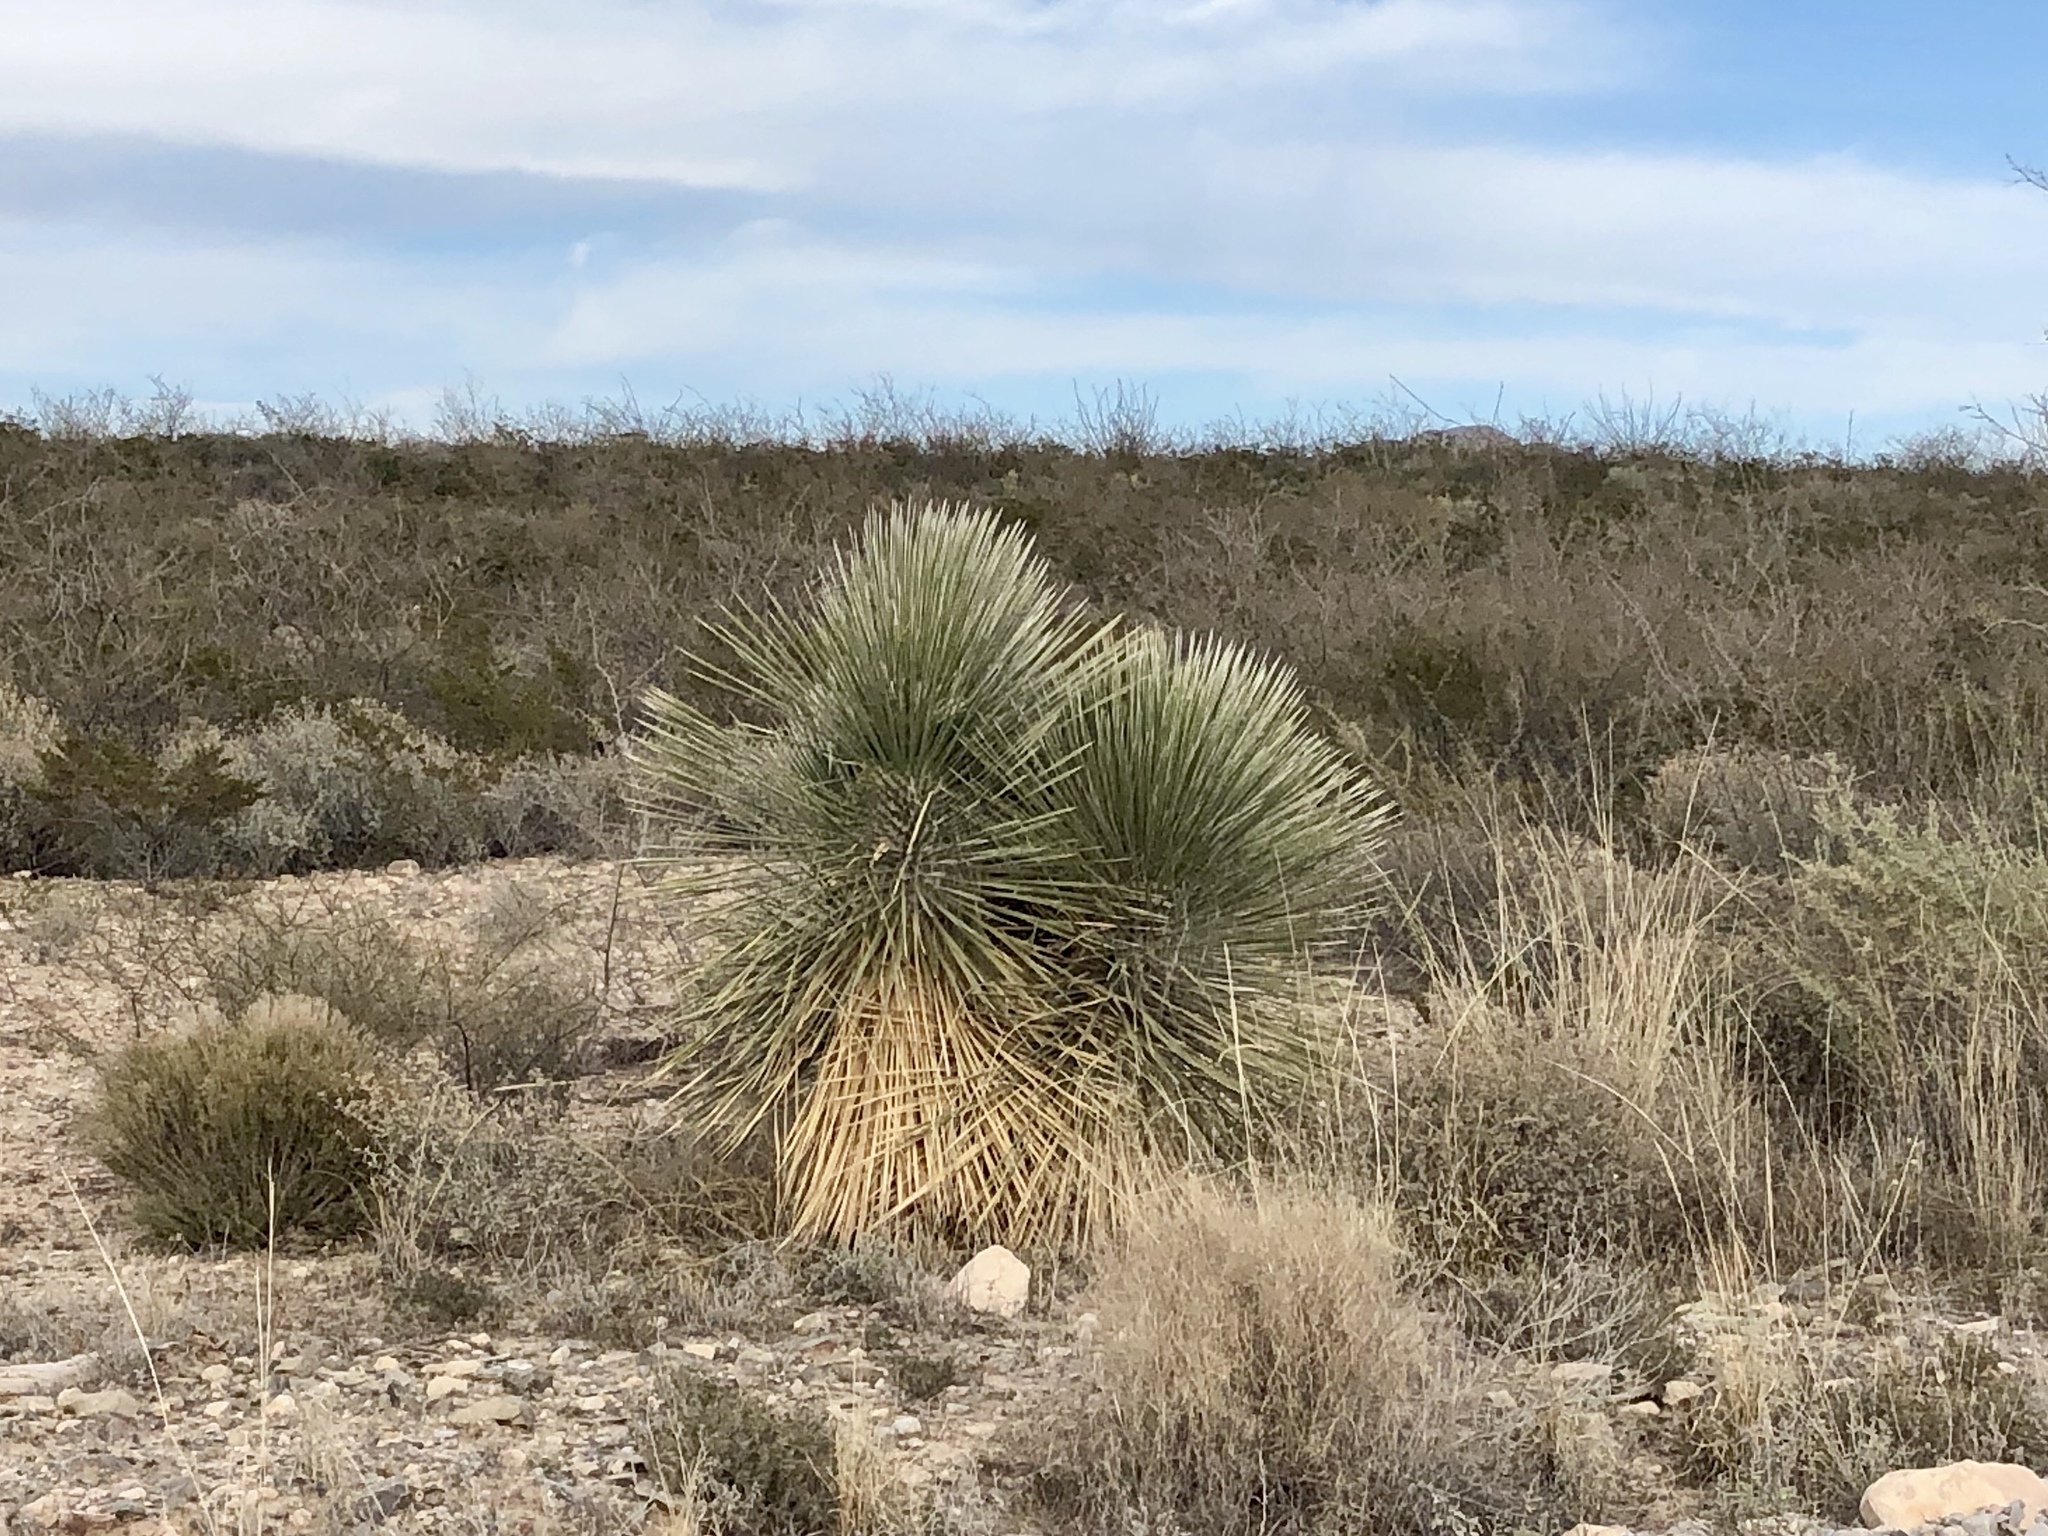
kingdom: Plantae
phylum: Tracheophyta
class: Liliopsida
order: Asparagales
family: Asparagaceae
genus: Yucca
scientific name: Yucca elata
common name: Palmella
